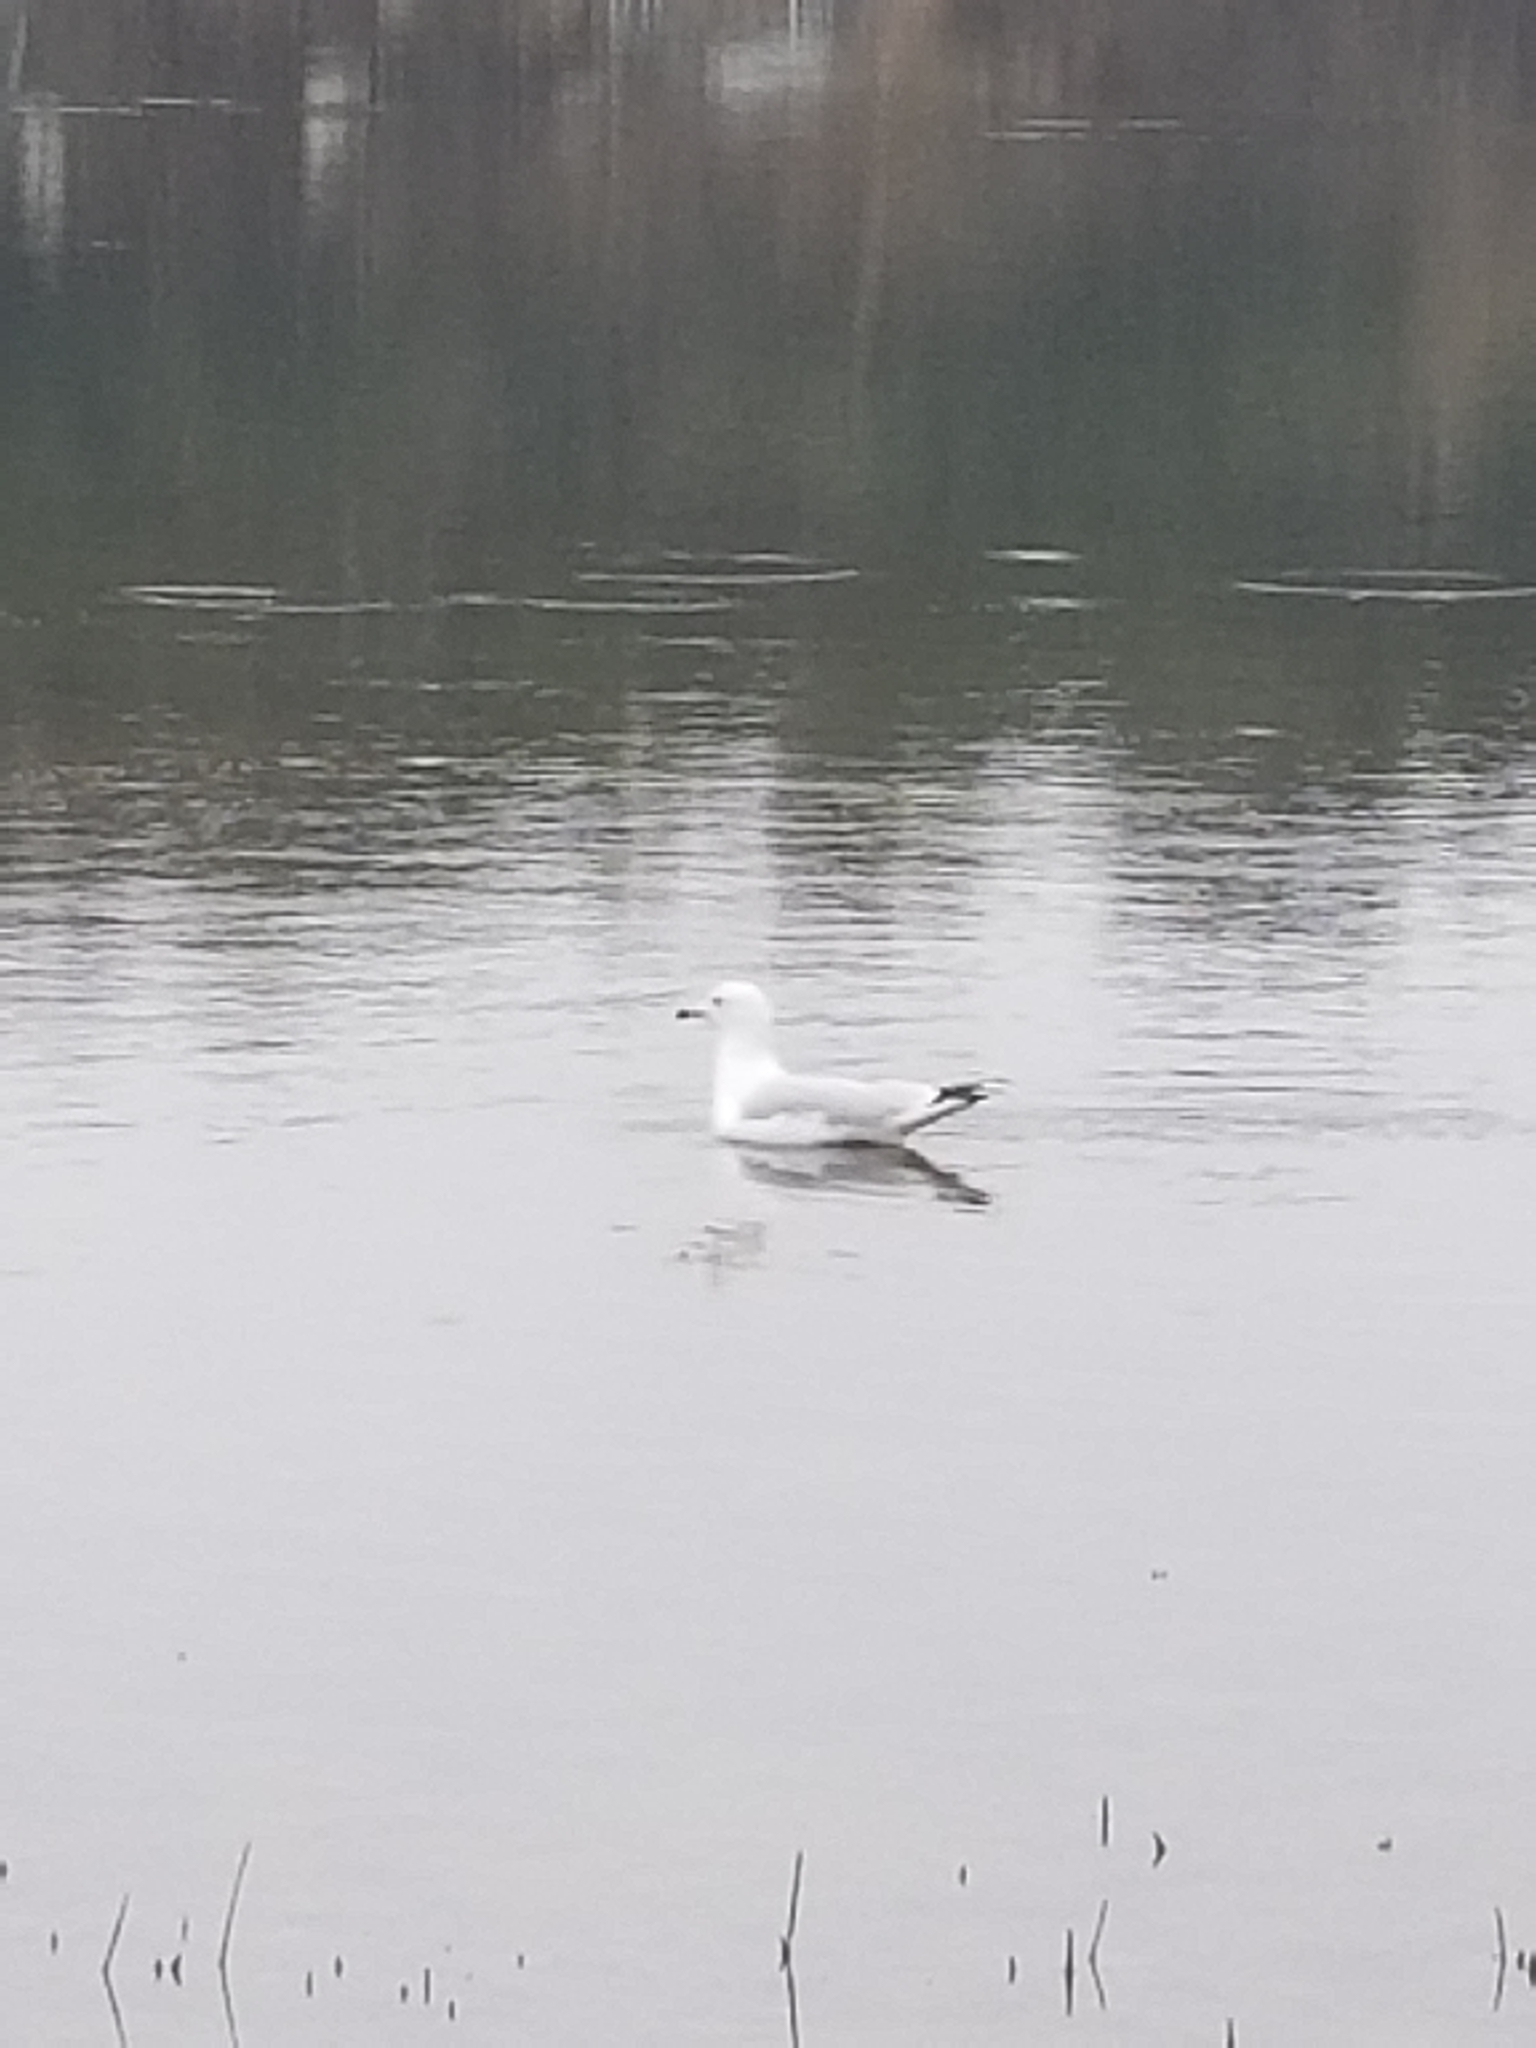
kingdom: Animalia
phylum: Chordata
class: Aves
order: Charadriiformes
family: Laridae
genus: Larus
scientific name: Larus delawarensis
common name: Ring-billed gull
